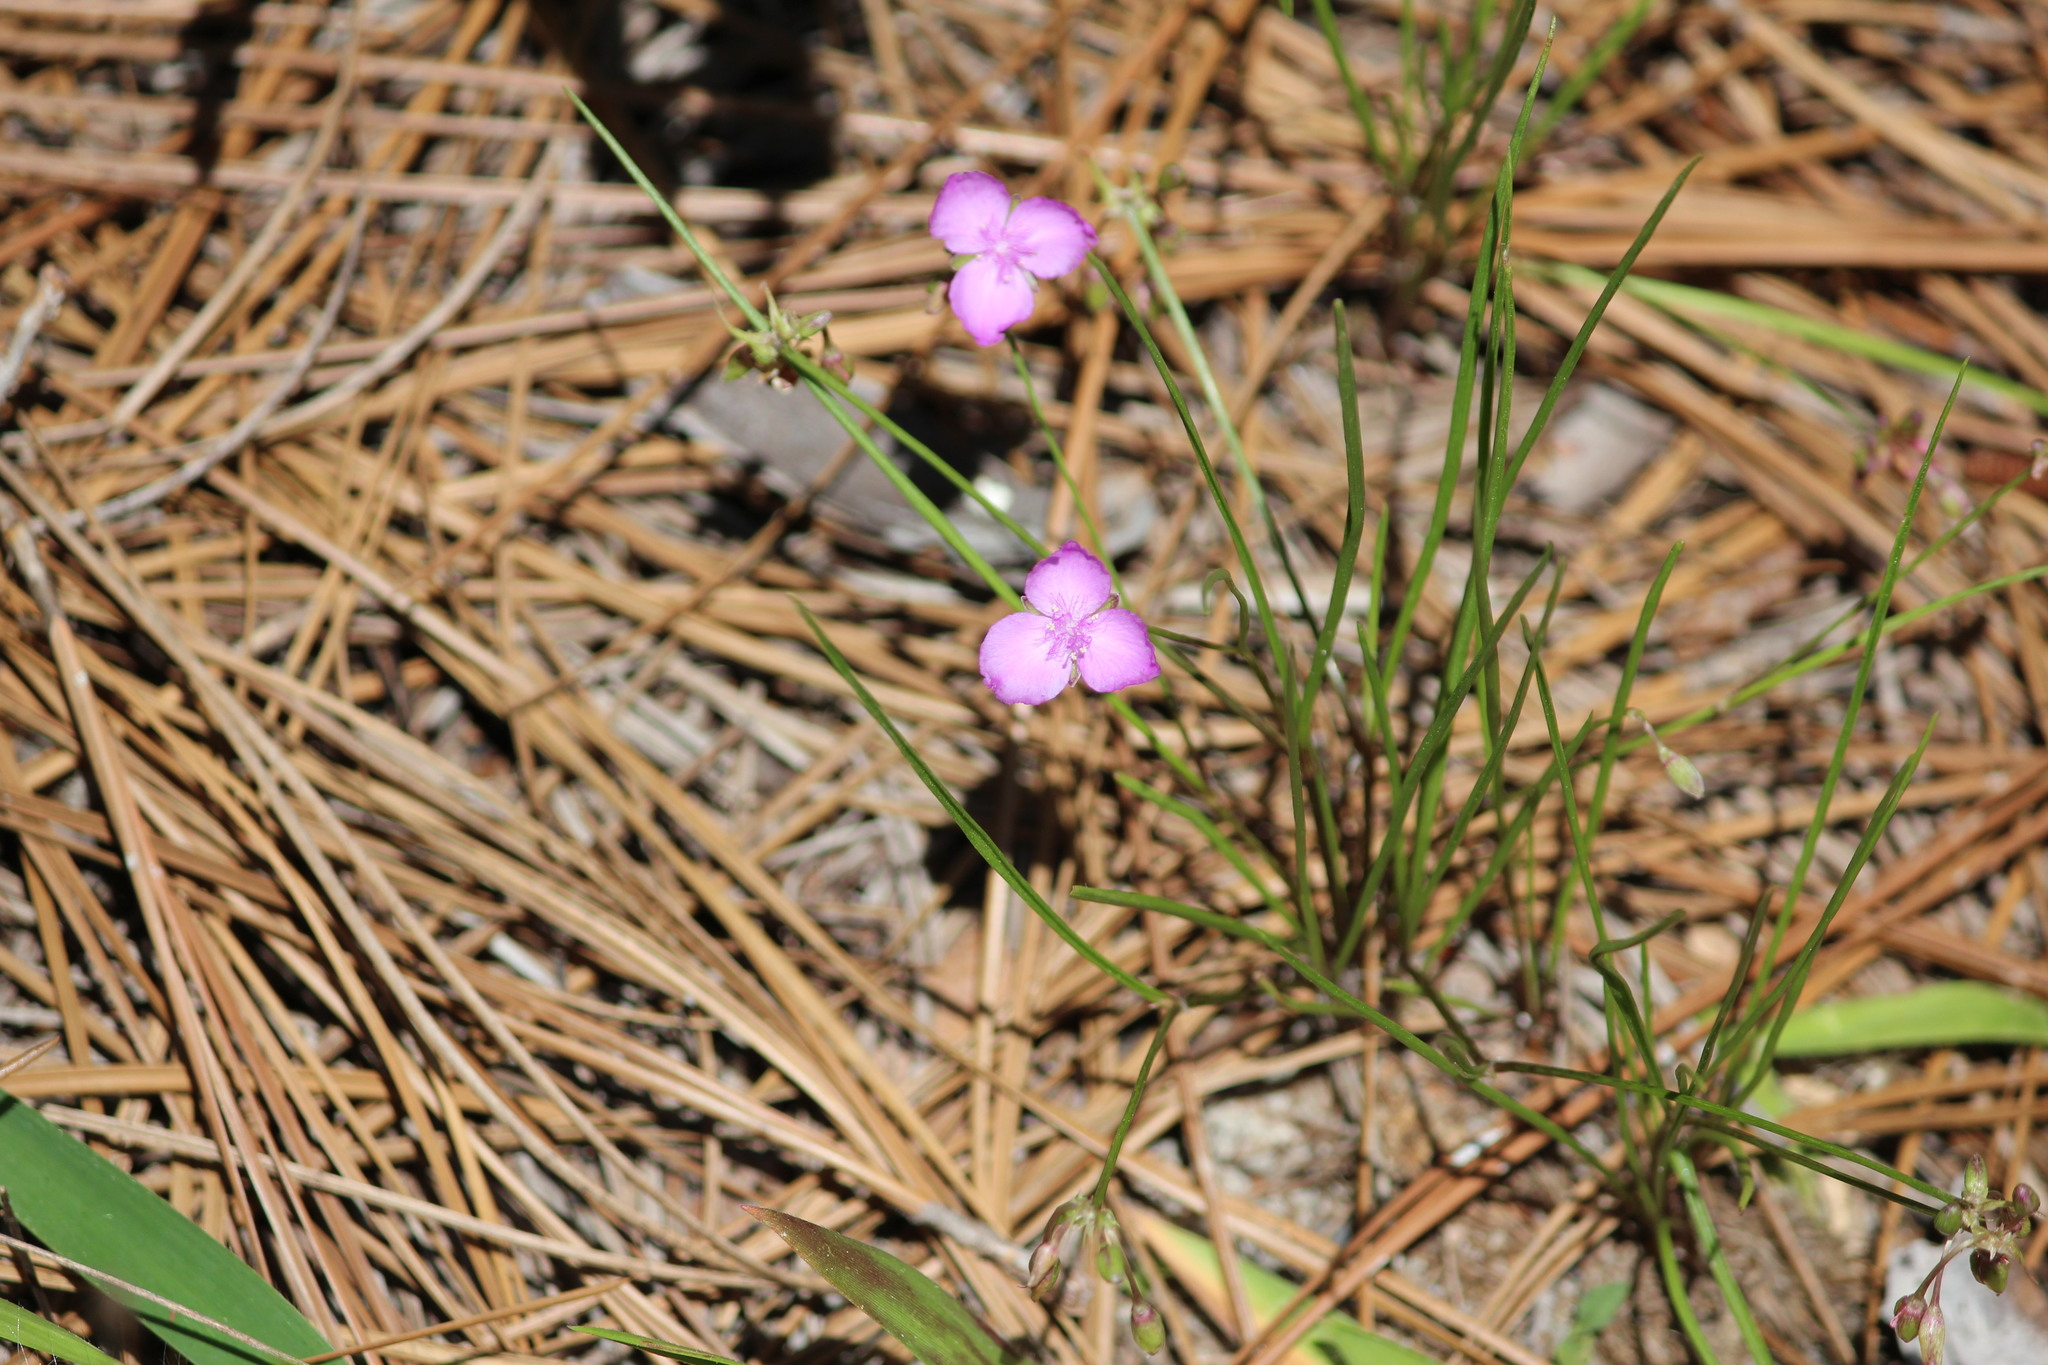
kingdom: Plantae
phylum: Tracheophyta
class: Liliopsida
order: Commelinales
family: Commelinaceae
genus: Callisia
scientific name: Callisia graminea
